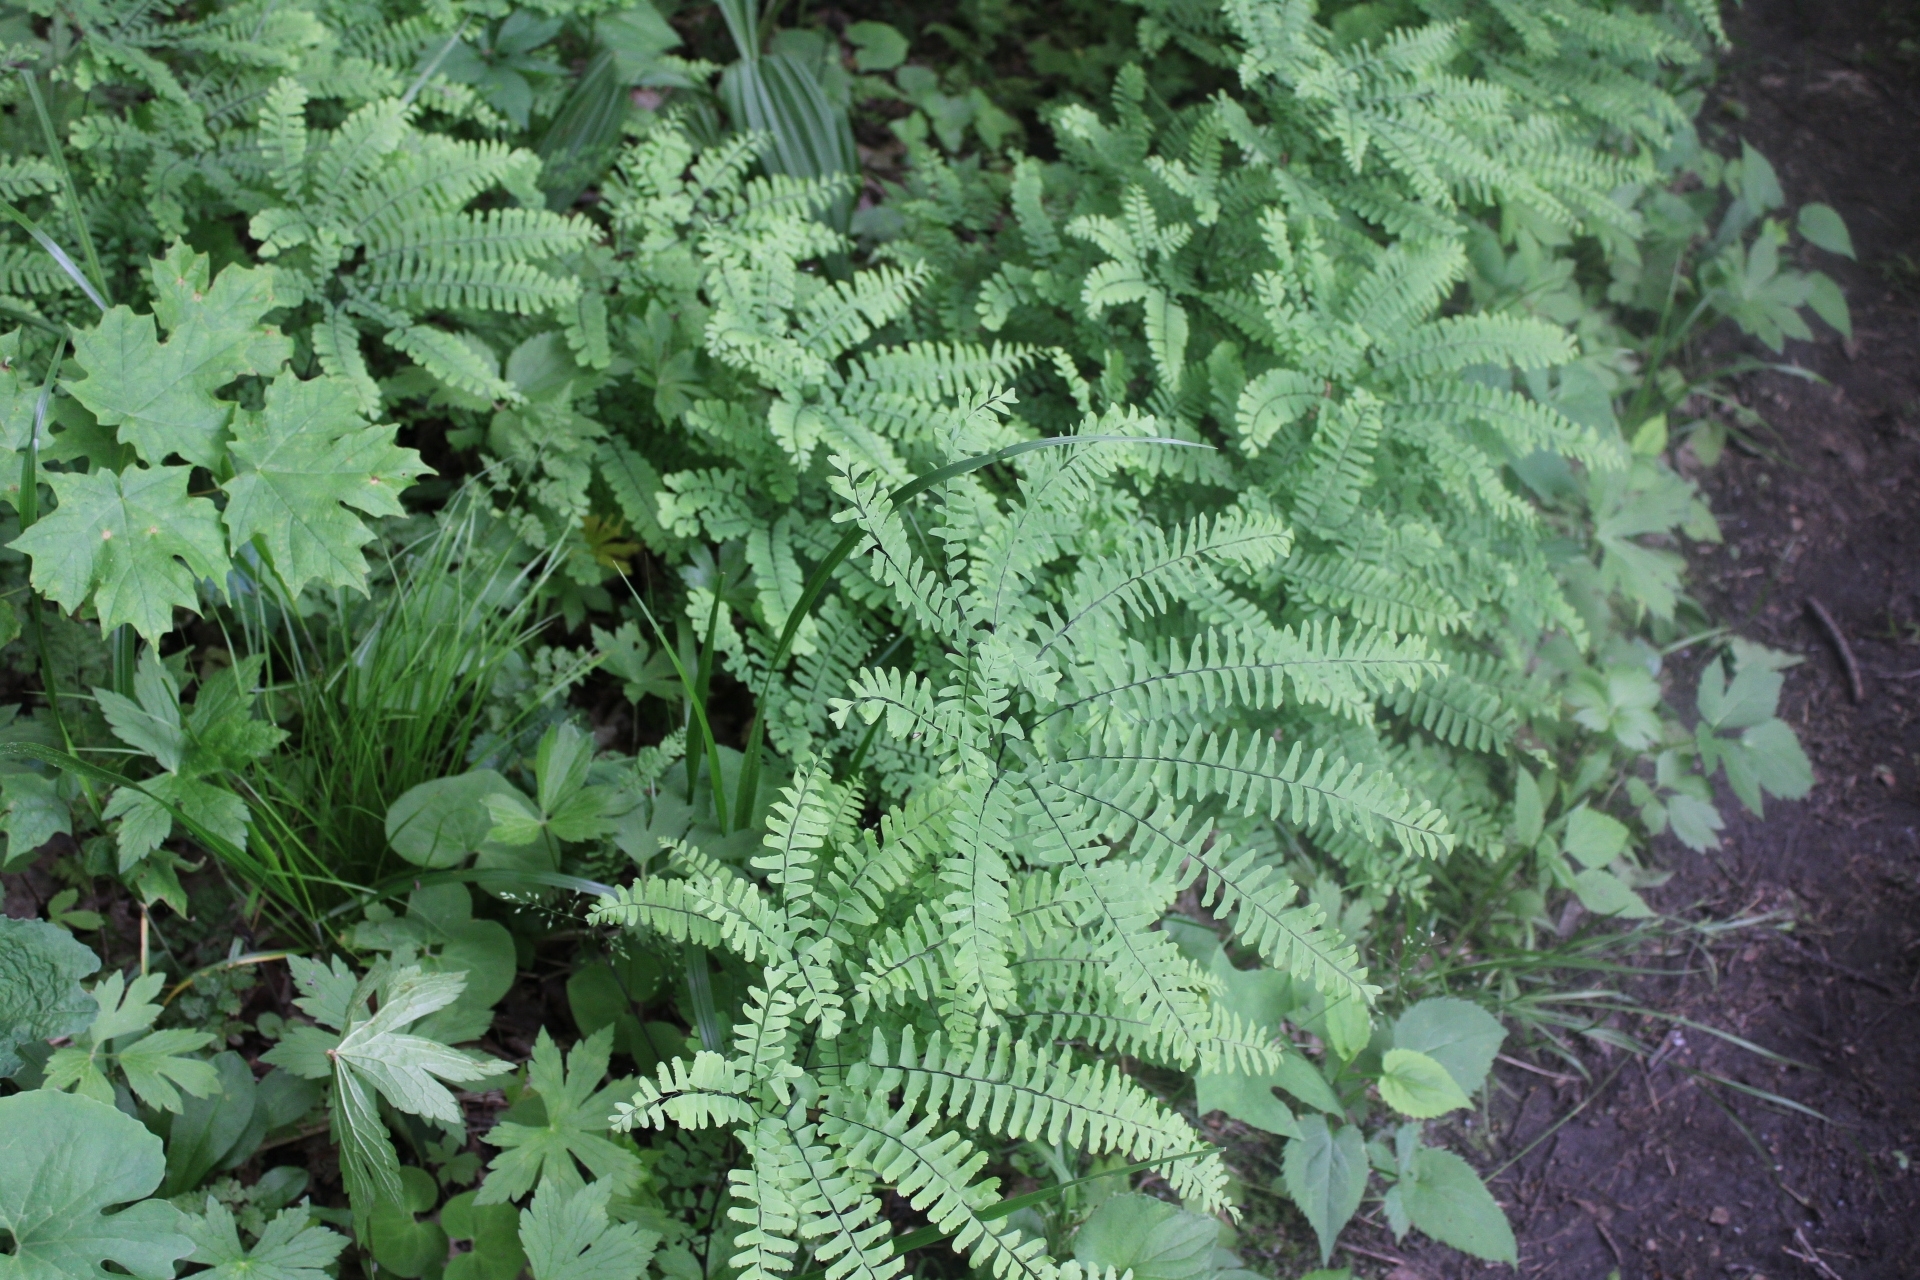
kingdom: Plantae
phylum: Tracheophyta
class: Polypodiopsida
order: Polypodiales
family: Pteridaceae
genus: Adiantum
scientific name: Adiantum pedatum
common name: Five-finger fern
